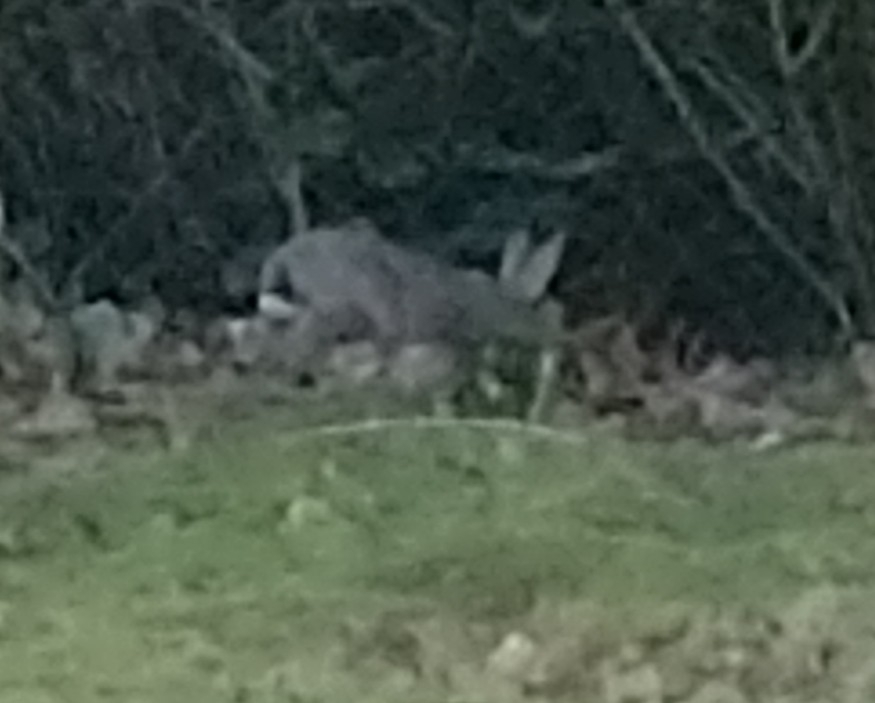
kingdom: Animalia
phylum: Chordata
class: Mammalia
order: Lagomorpha
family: Leporidae
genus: Oryctolagus
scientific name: Oryctolagus cuniculus
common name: European rabbit
